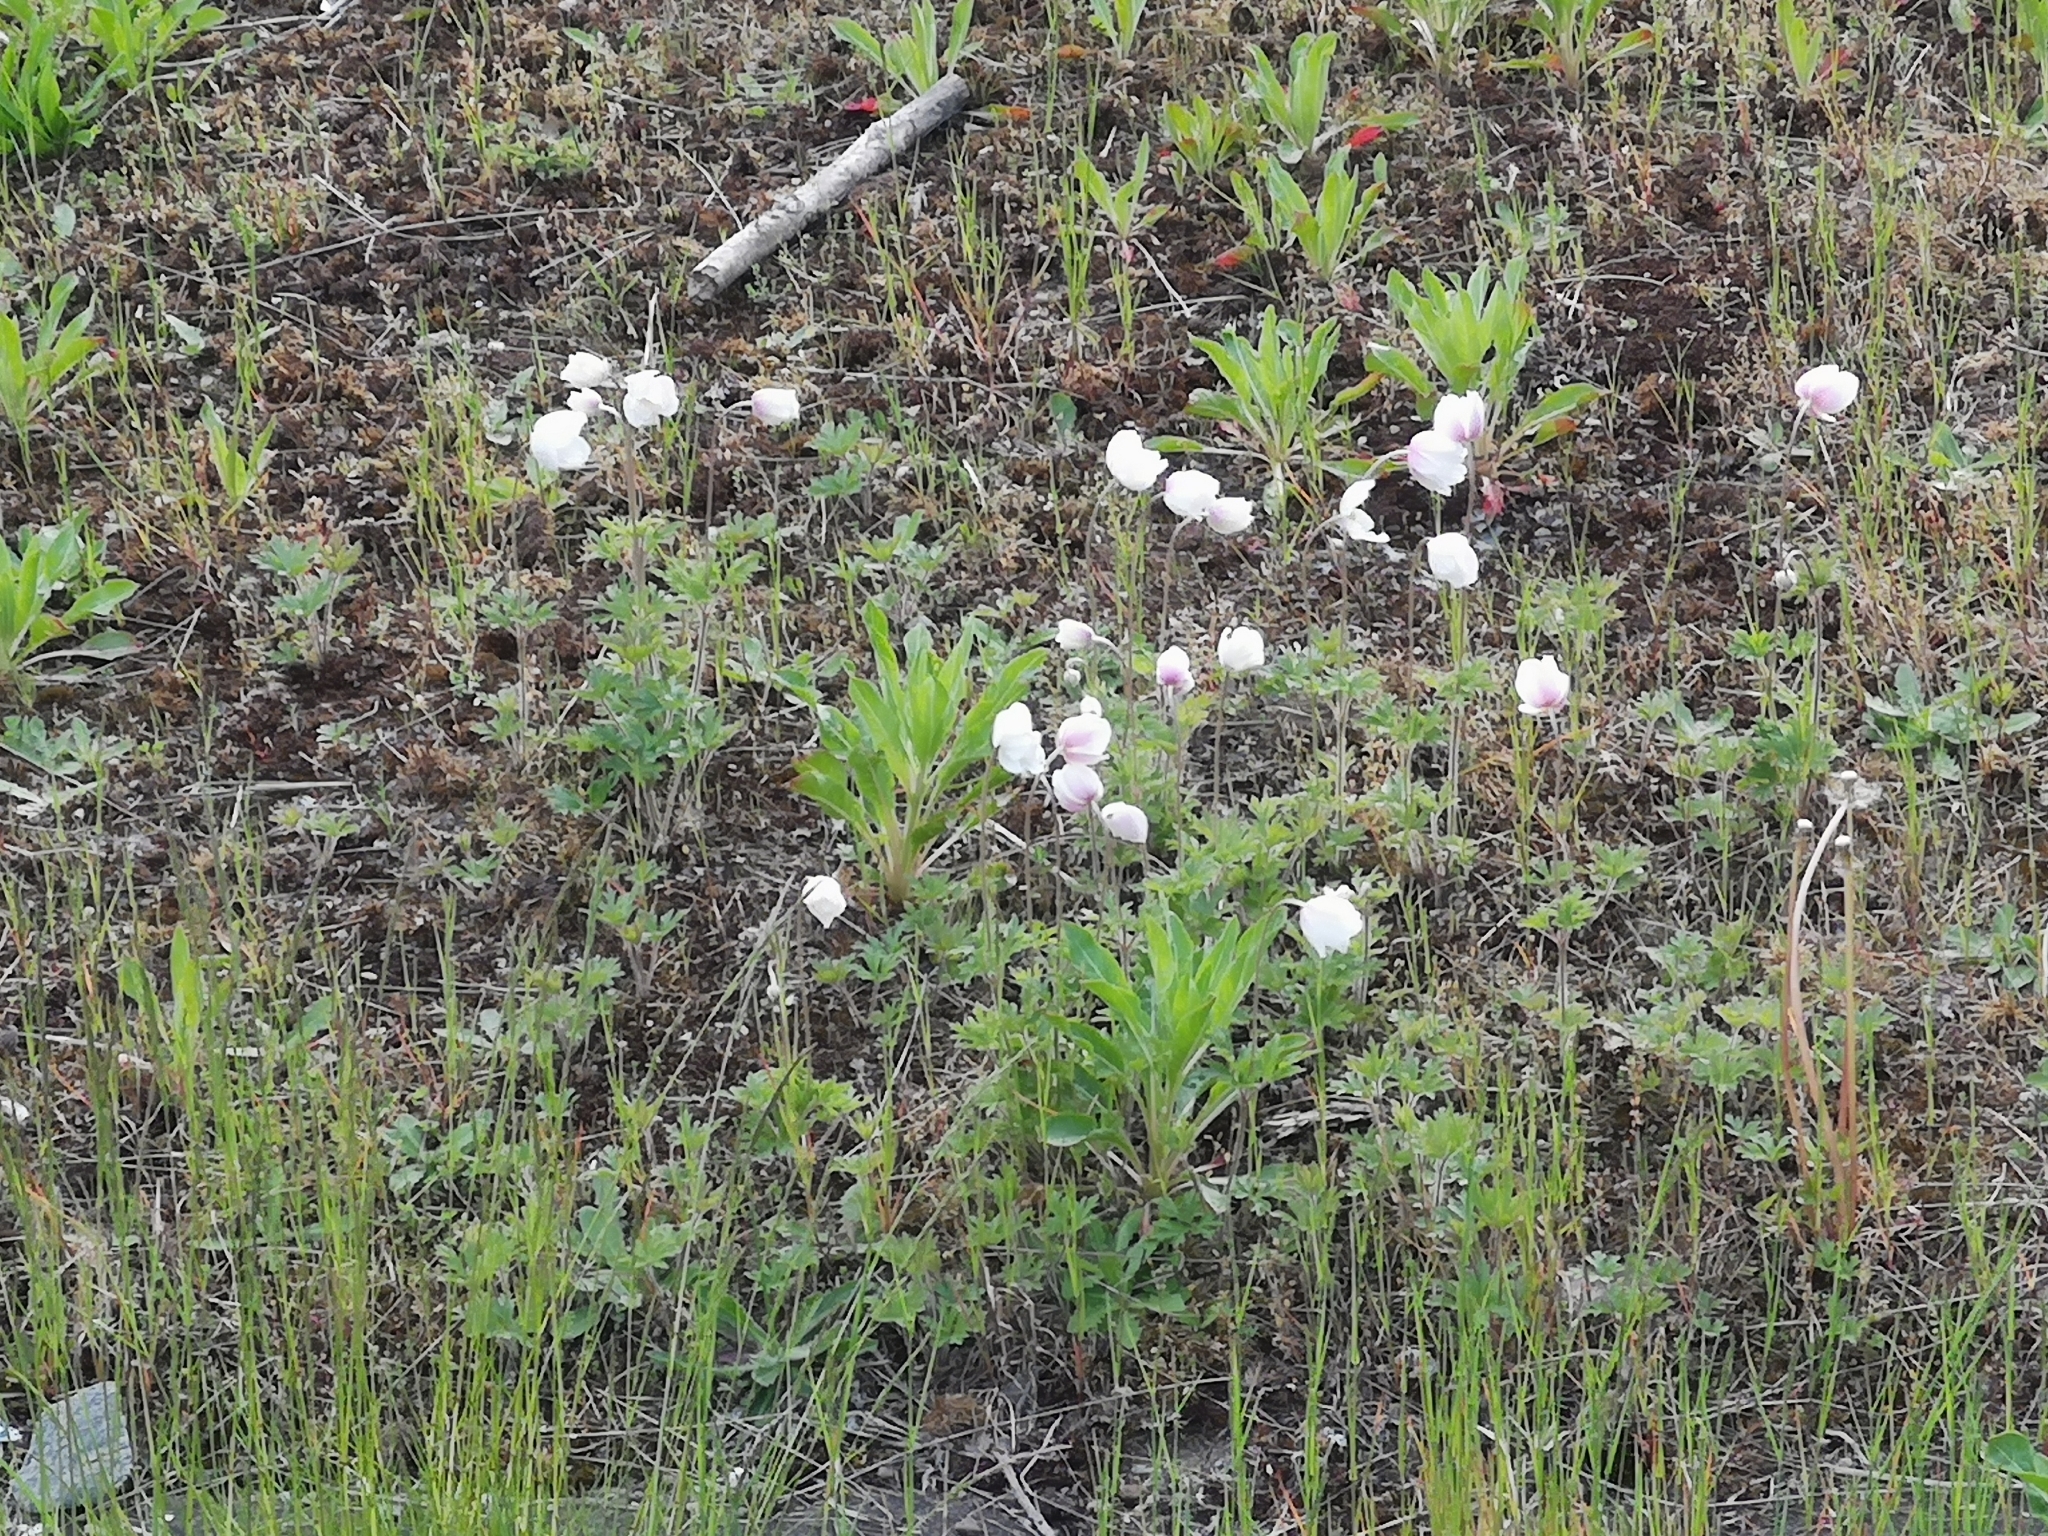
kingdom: Plantae
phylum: Tracheophyta
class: Magnoliopsida
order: Ranunculales
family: Ranunculaceae
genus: Anemone
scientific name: Anemone sylvestris
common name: Snowdrop anemone
